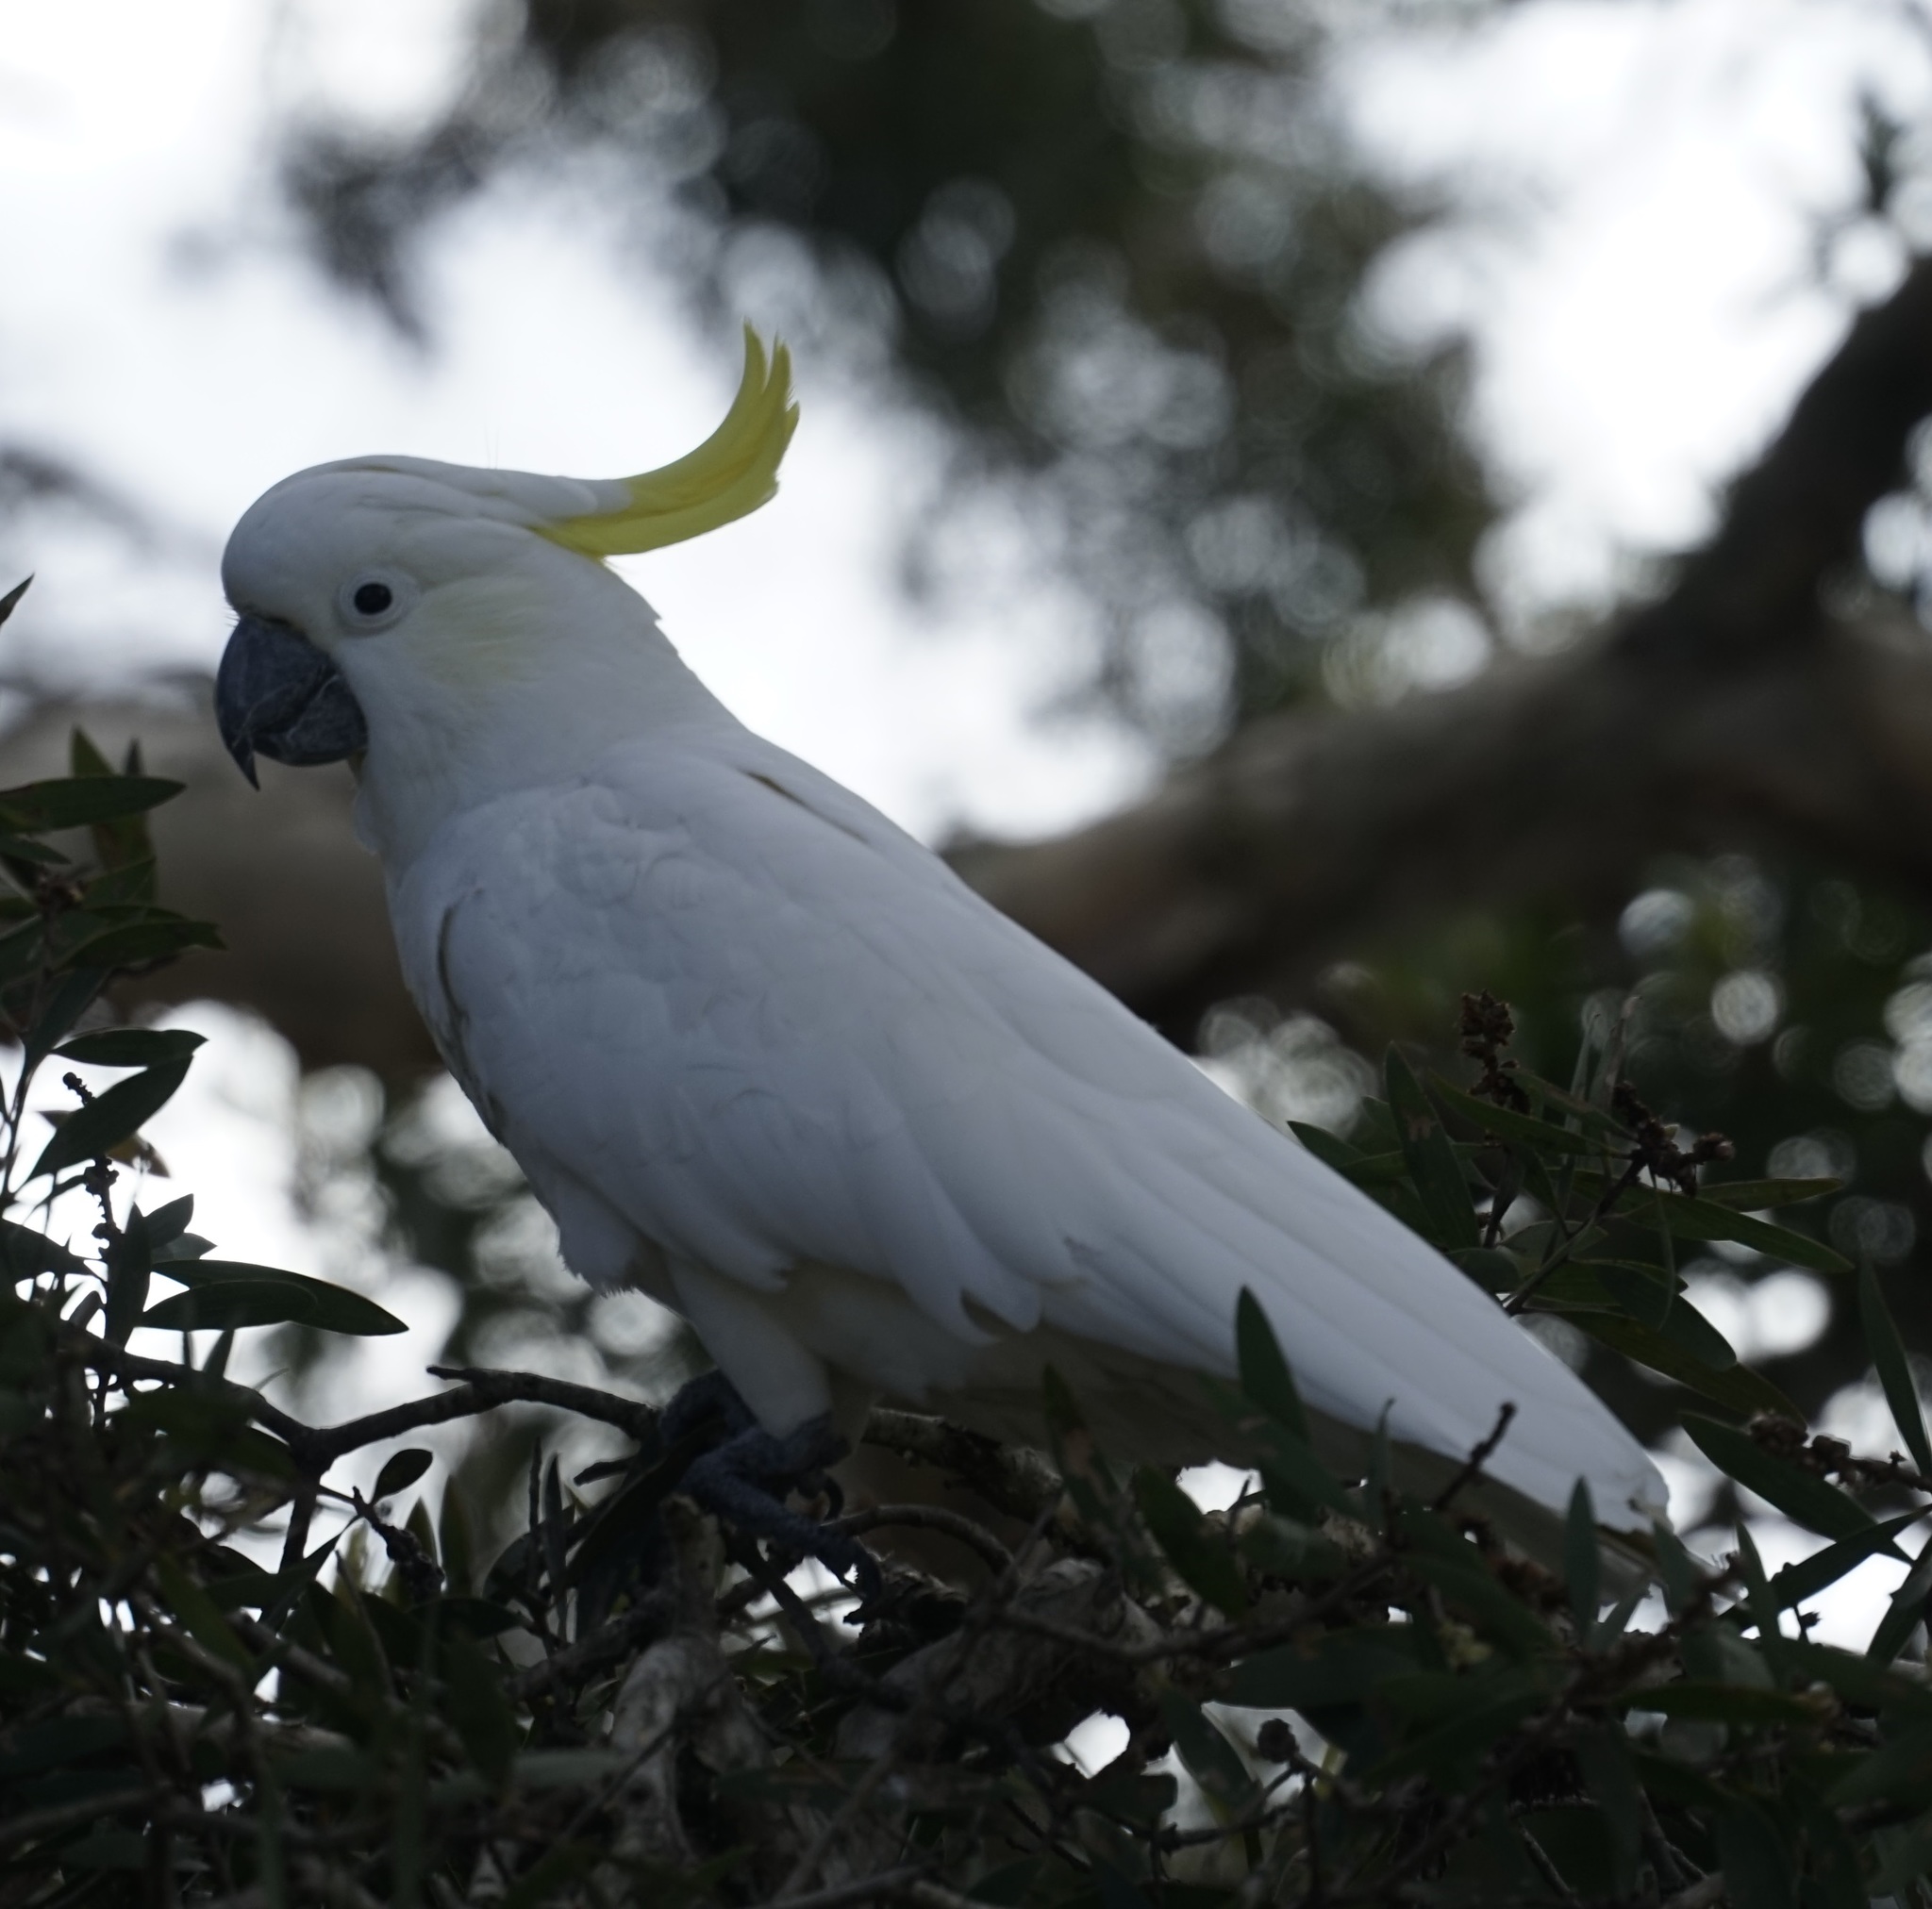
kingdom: Animalia
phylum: Chordata
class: Aves
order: Psittaciformes
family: Psittacidae
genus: Cacatua
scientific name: Cacatua galerita
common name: Sulphur-crested cockatoo
